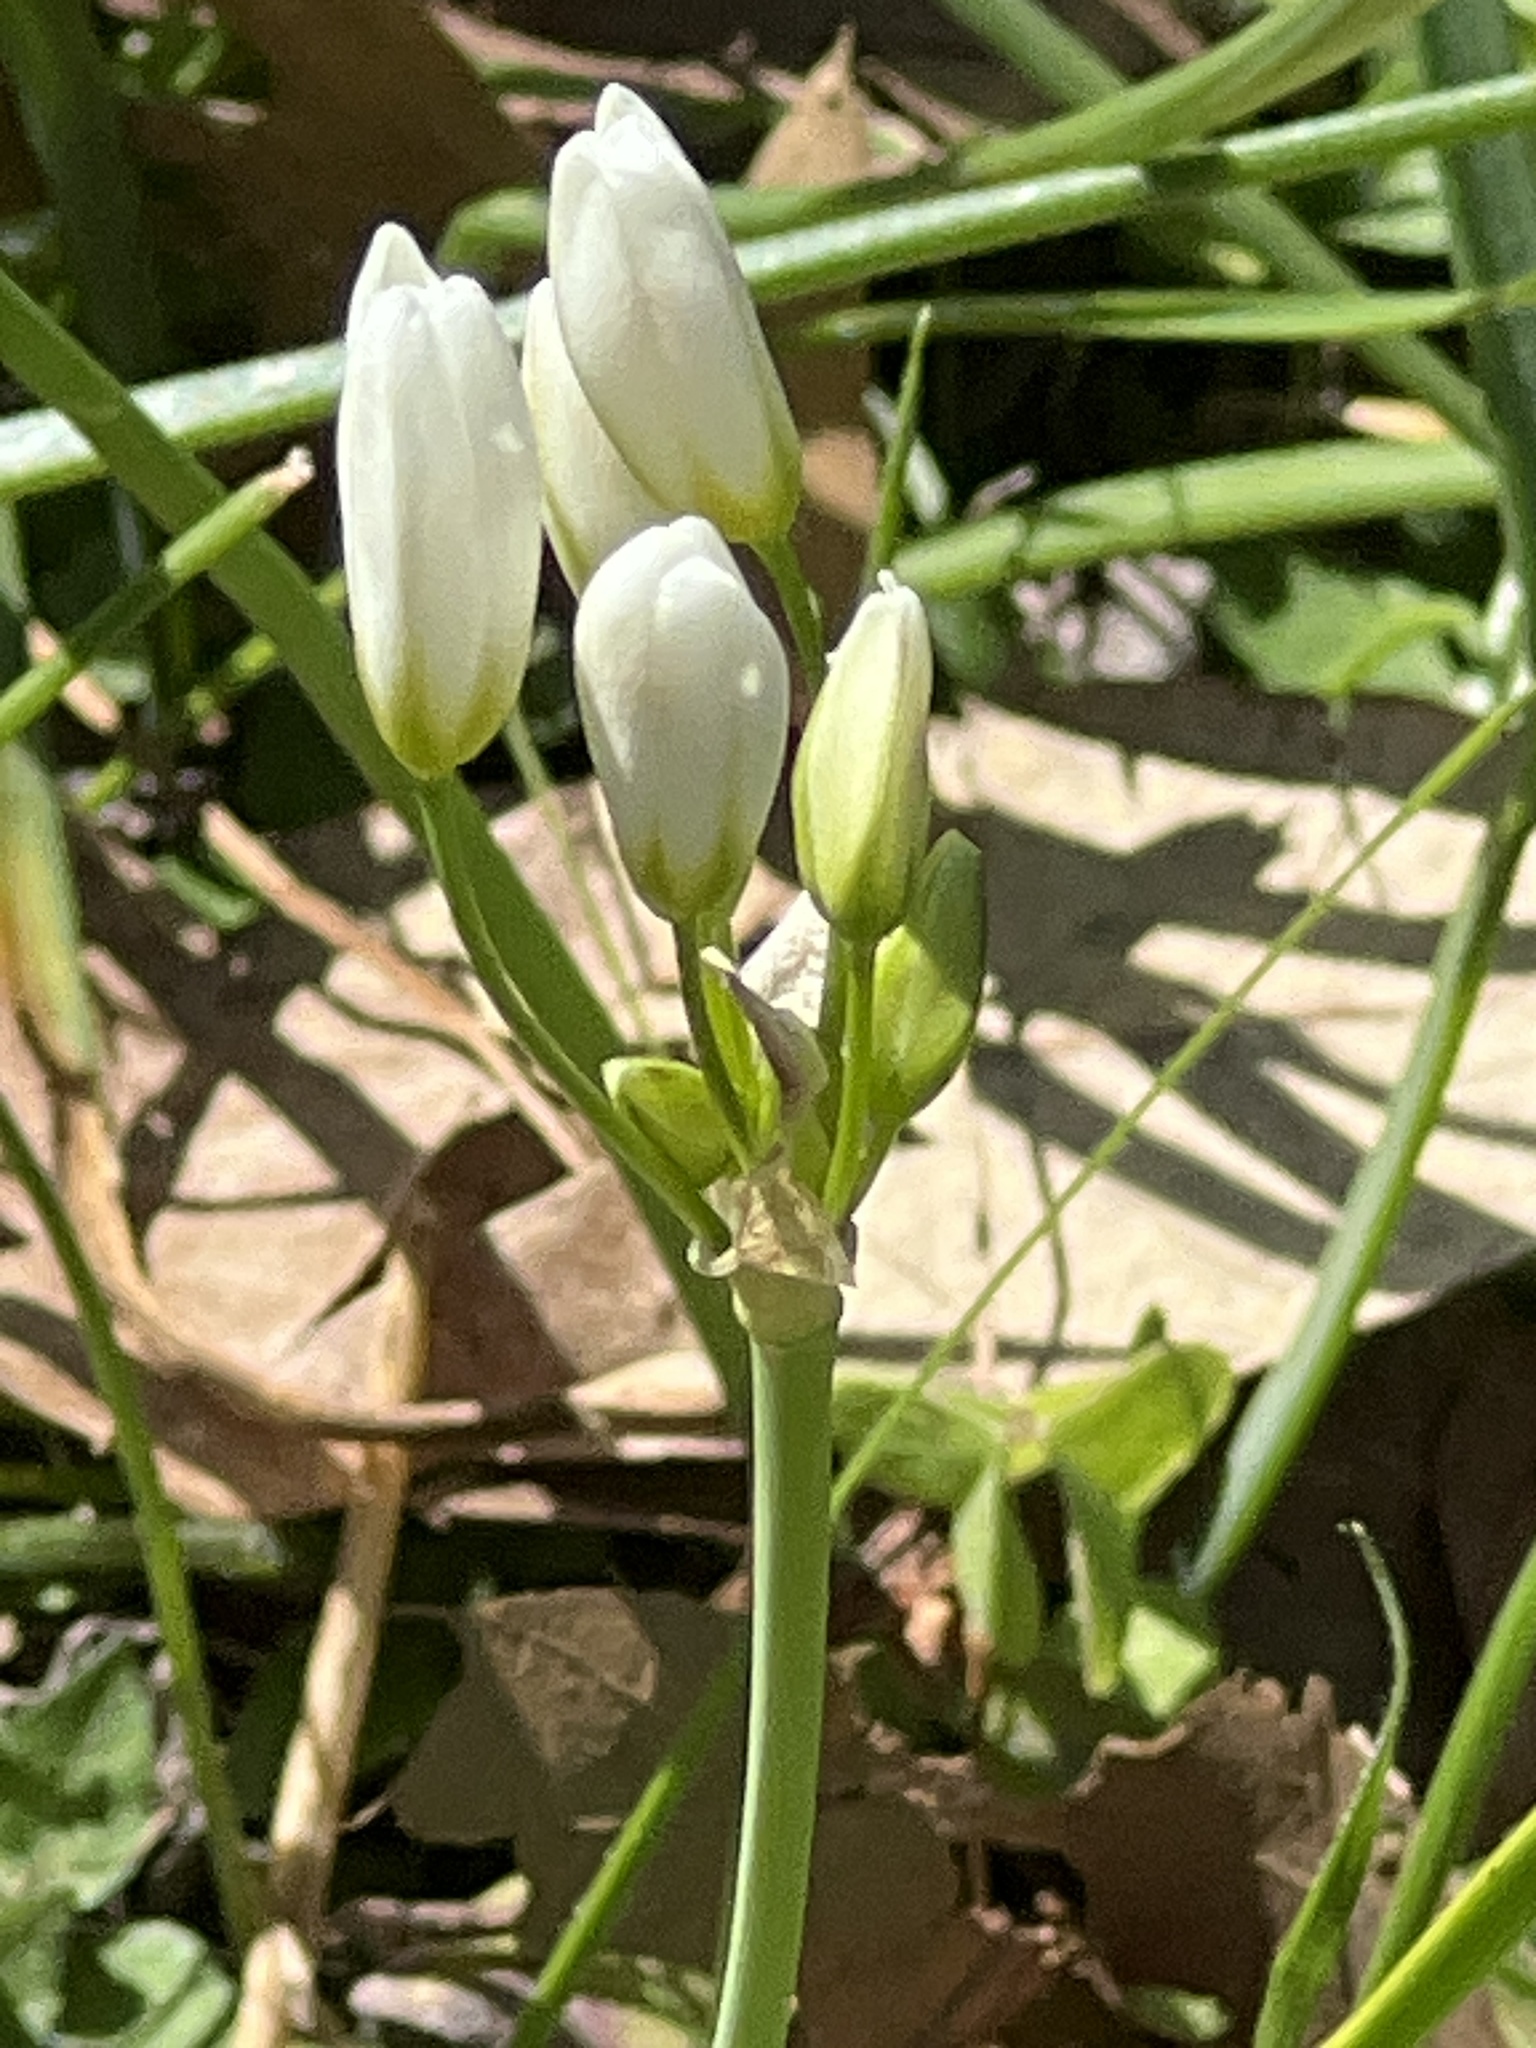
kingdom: Plantae
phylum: Tracheophyta
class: Liliopsida
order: Asparagales
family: Amaryllidaceae
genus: Nothoscordum
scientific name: Nothoscordum bivalve
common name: Crow-poison
